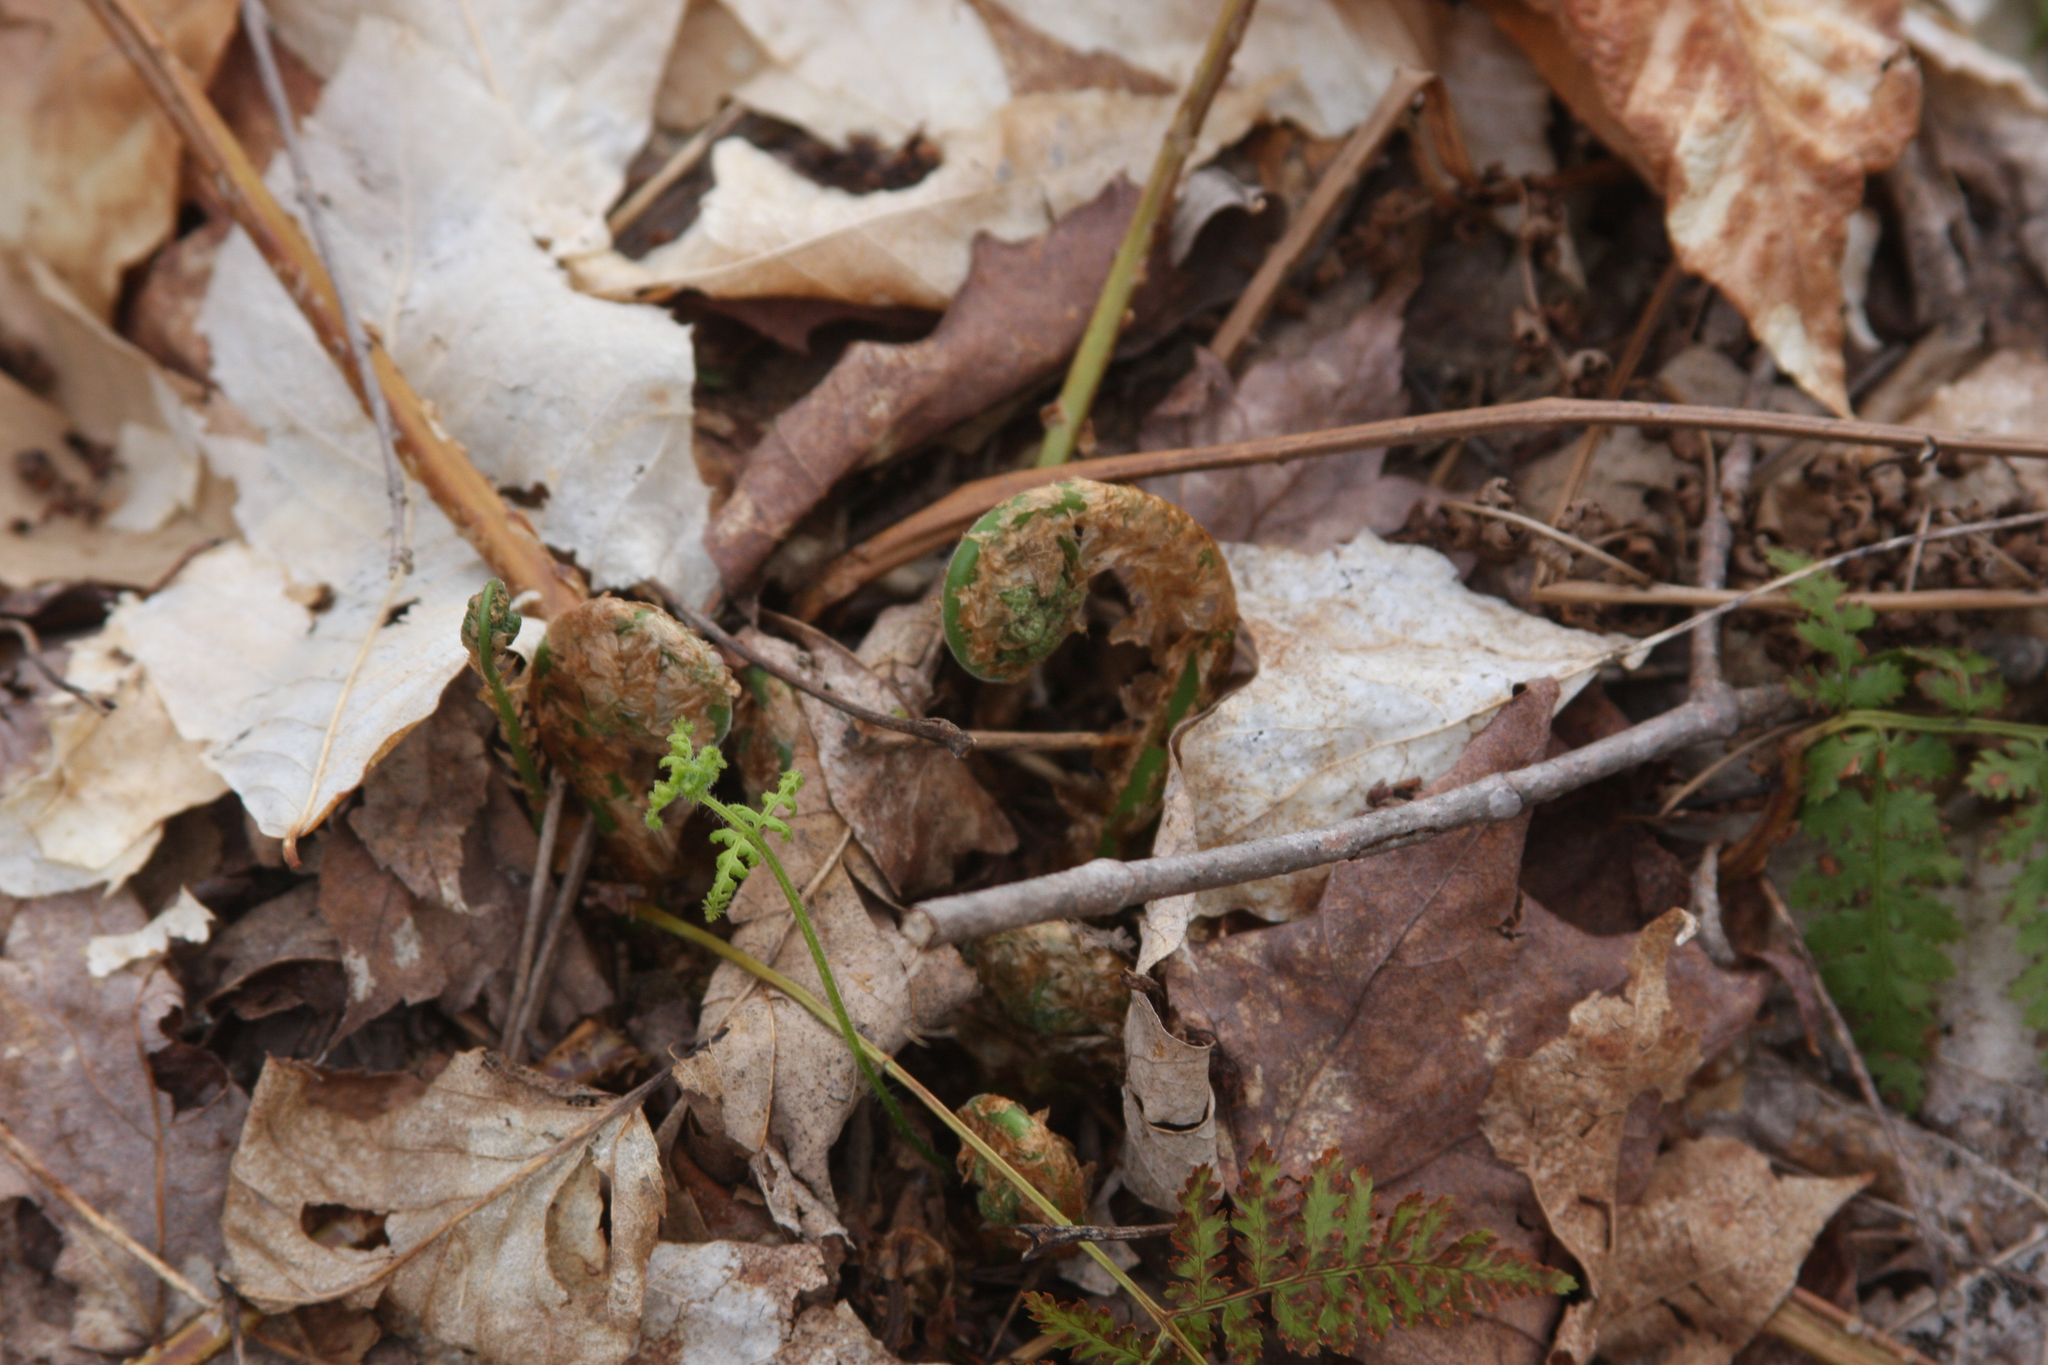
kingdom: Plantae
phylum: Tracheophyta
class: Polypodiopsida
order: Polypodiales
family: Dryopteridaceae
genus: Dryopteris
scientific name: Dryopteris intermedia
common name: Evergreen wood fern
